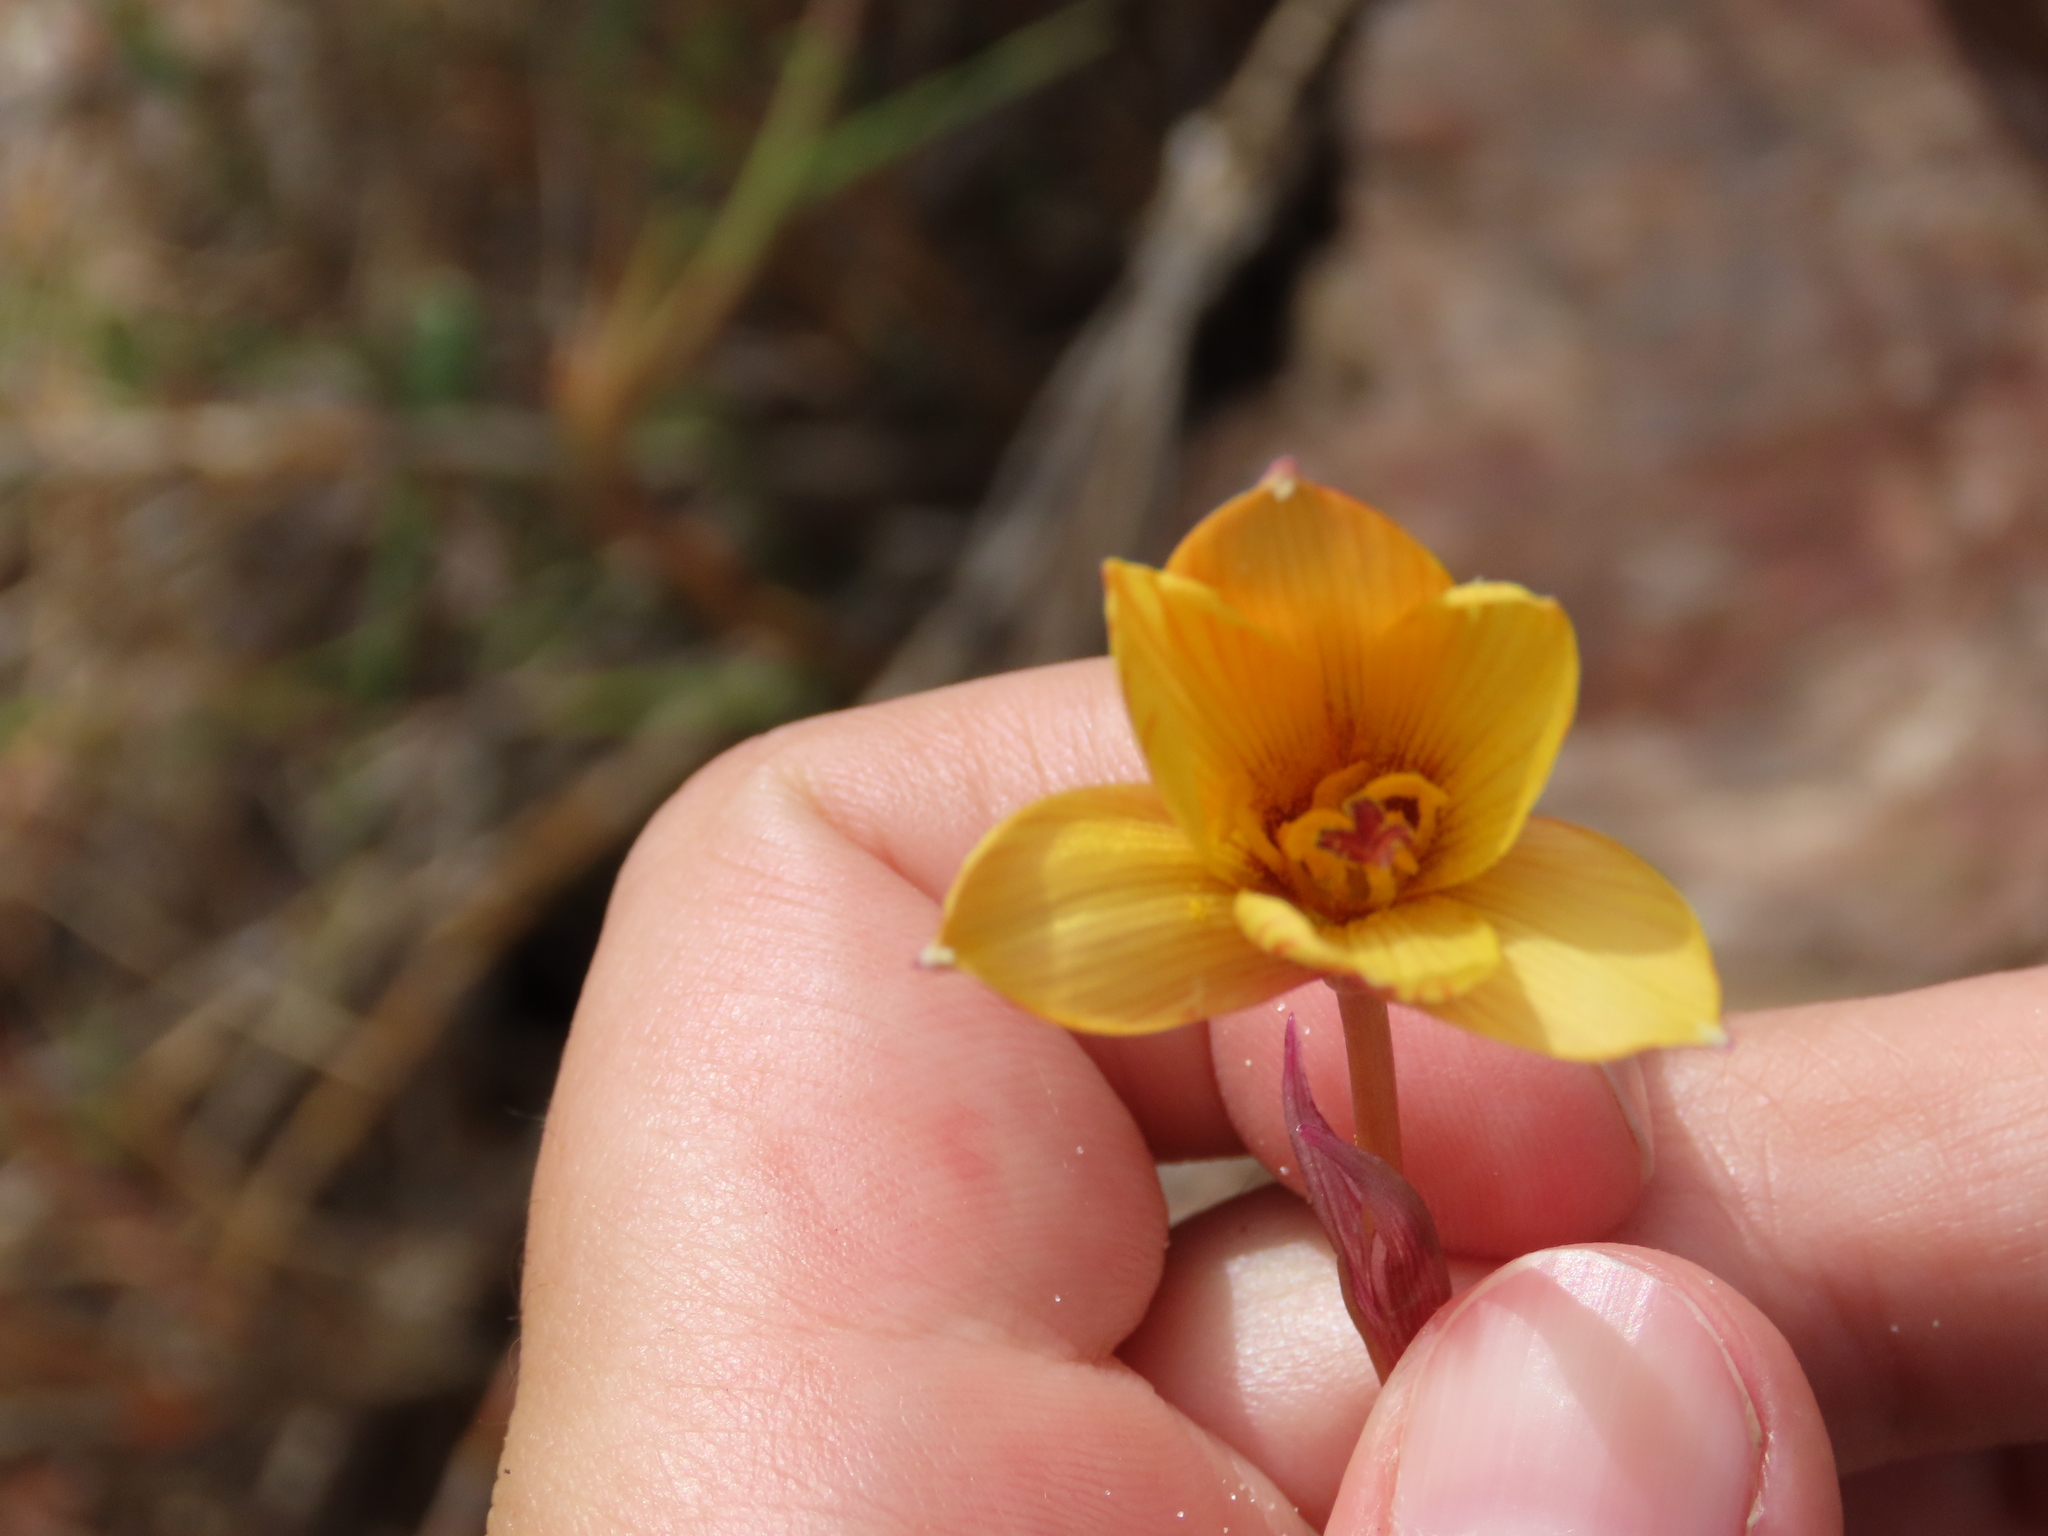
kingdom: Plantae
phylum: Tracheophyta
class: Liliopsida
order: Asparagales
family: Amaryllidaceae
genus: Zephyranthes
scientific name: Zephyranthes tubispatha
